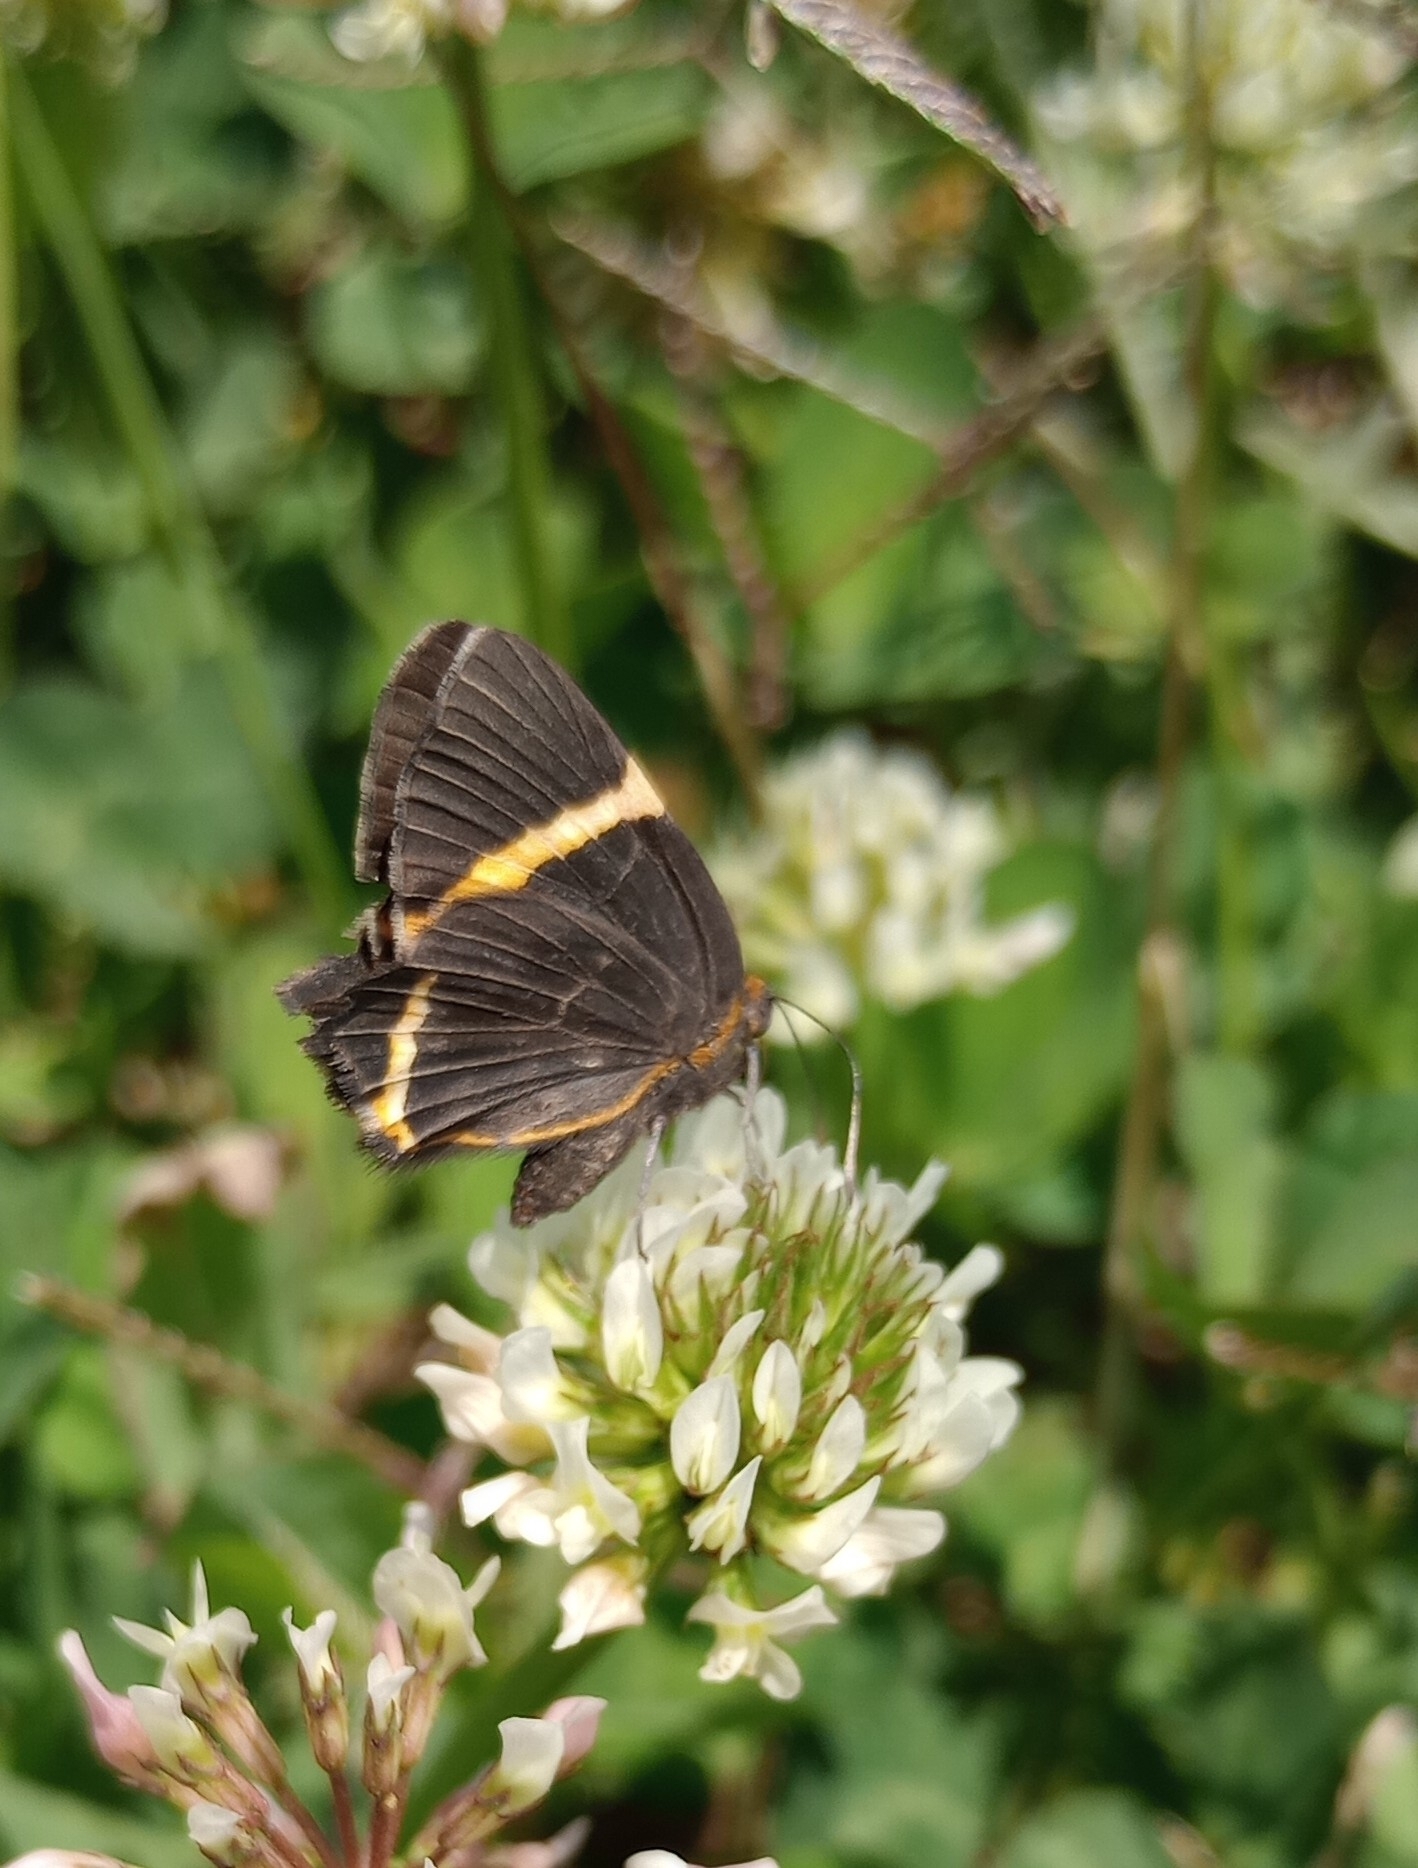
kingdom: Animalia
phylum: Arthropoda
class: Insecta
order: Lepidoptera
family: Riodinidae
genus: Riodina
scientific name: Riodina lysippoides
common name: Little dancer metalmark
